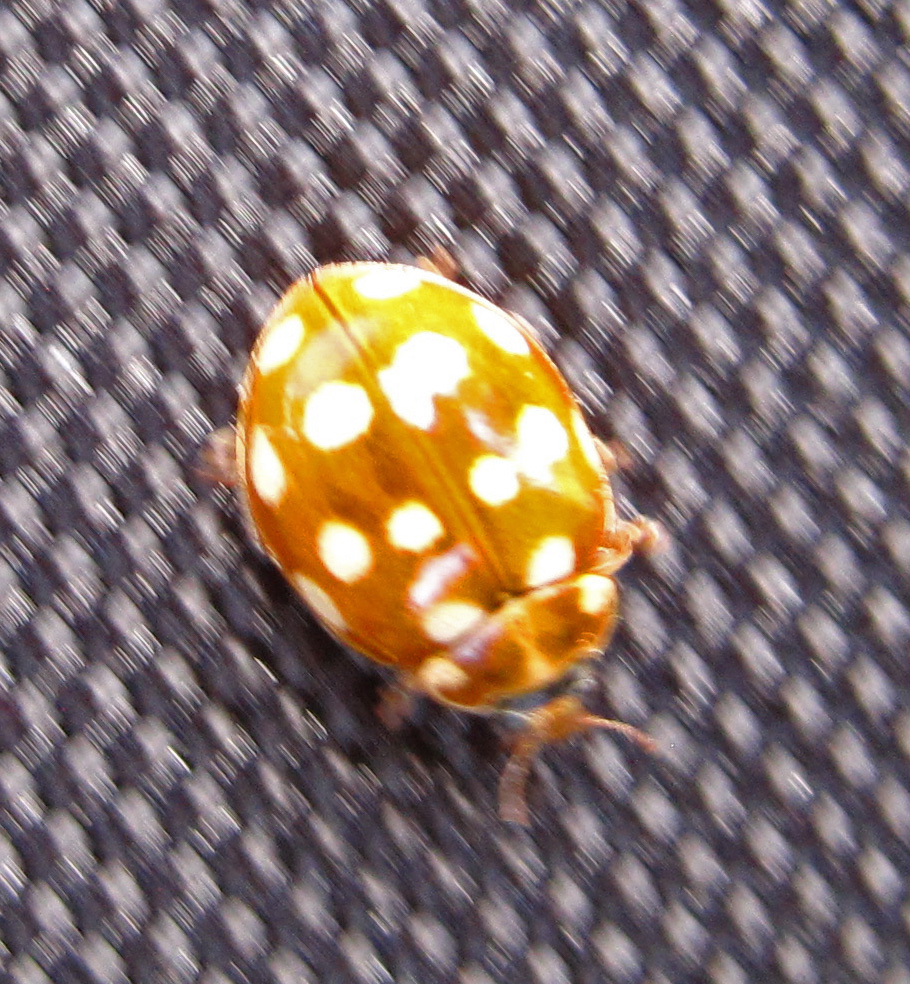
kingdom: Animalia
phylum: Arthropoda
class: Insecta
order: Coleoptera
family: Coccinellidae
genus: Calvia
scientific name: Calvia quatuordecimguttata
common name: Cream-spot ladybird
